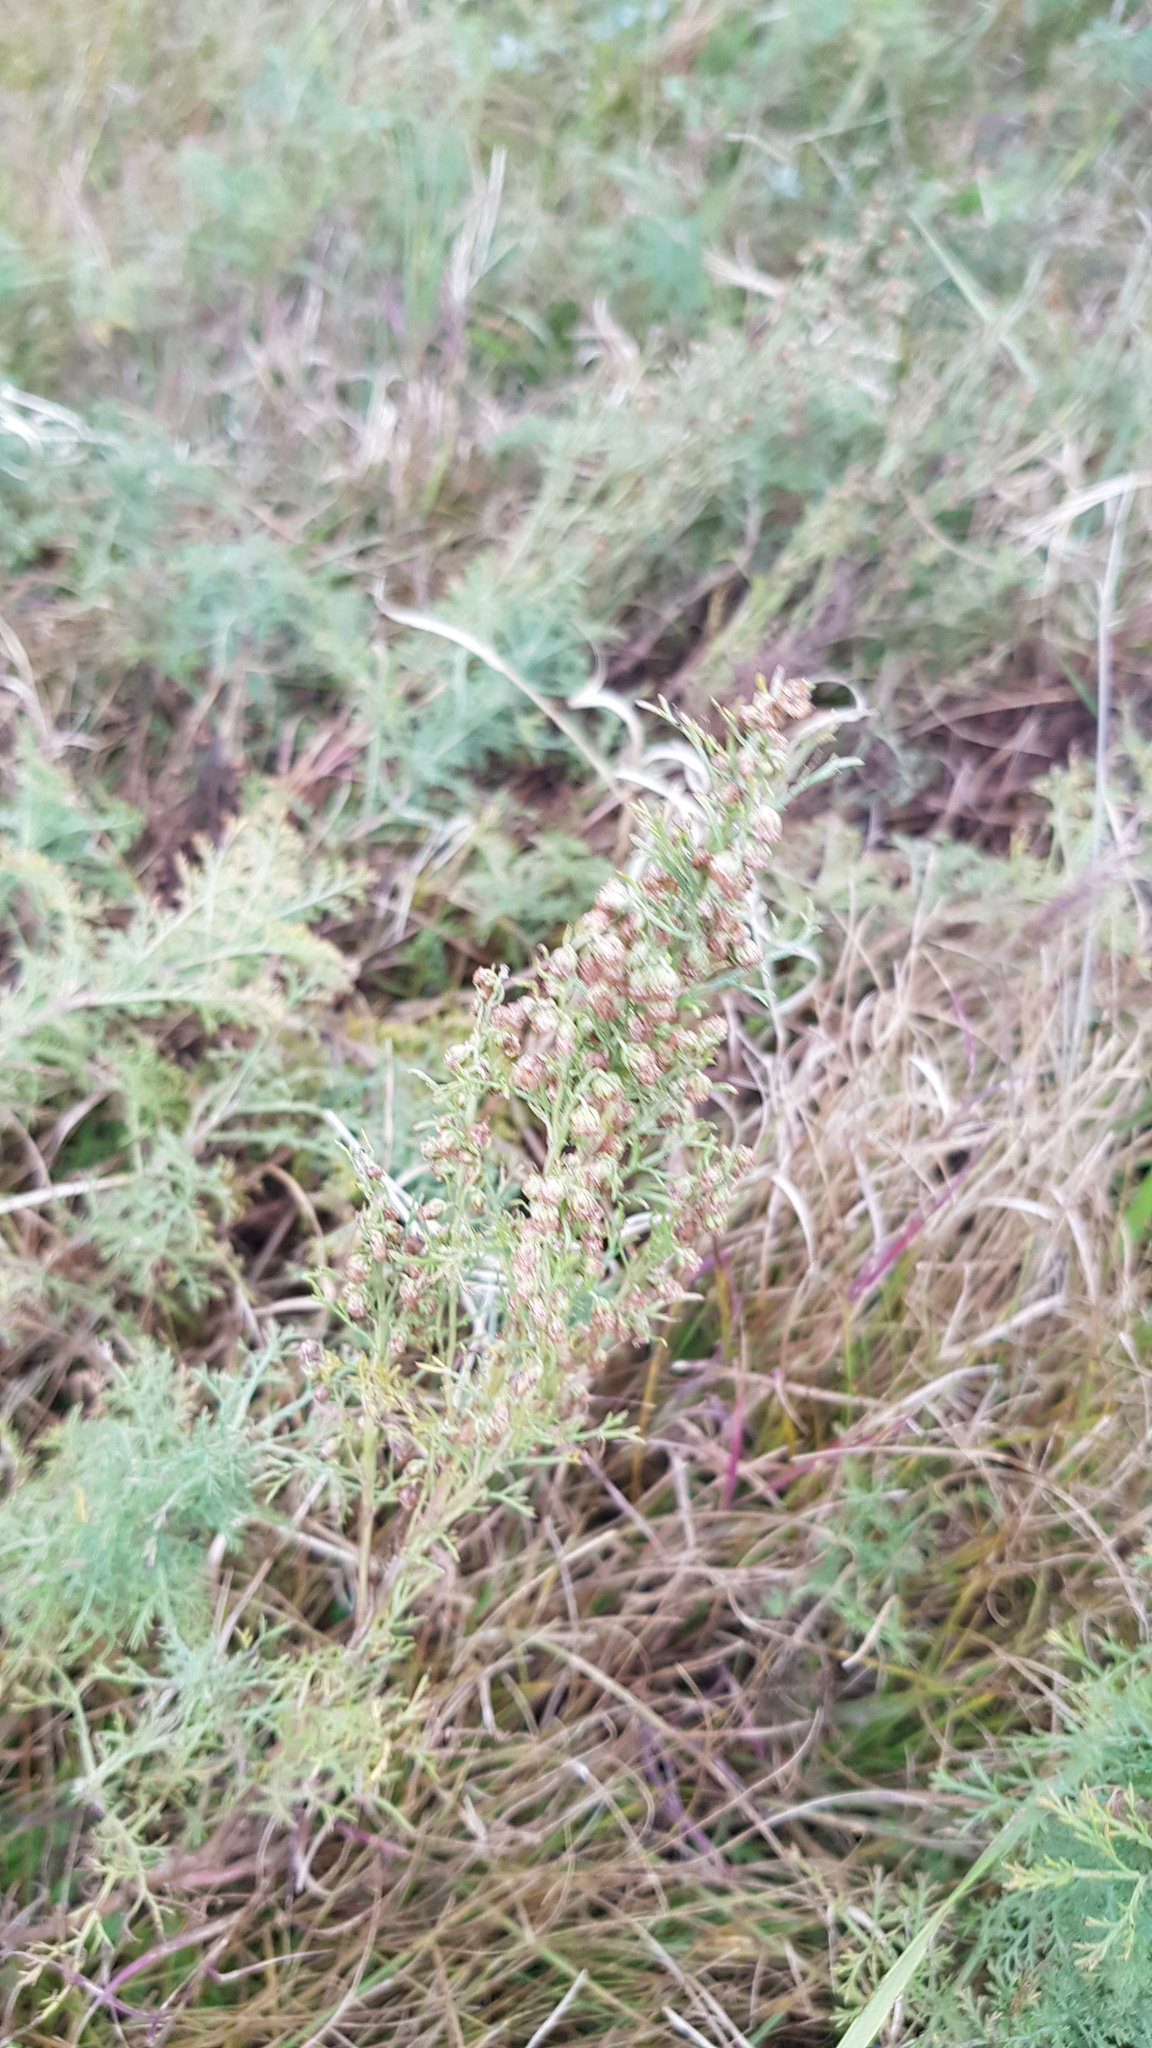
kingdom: Plantae
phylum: Tracheophyta
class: Magnoliopsida
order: Asterales
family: Asteraceae
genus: Artemisia
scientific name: Artemisia dracunculus
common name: Tarragon
